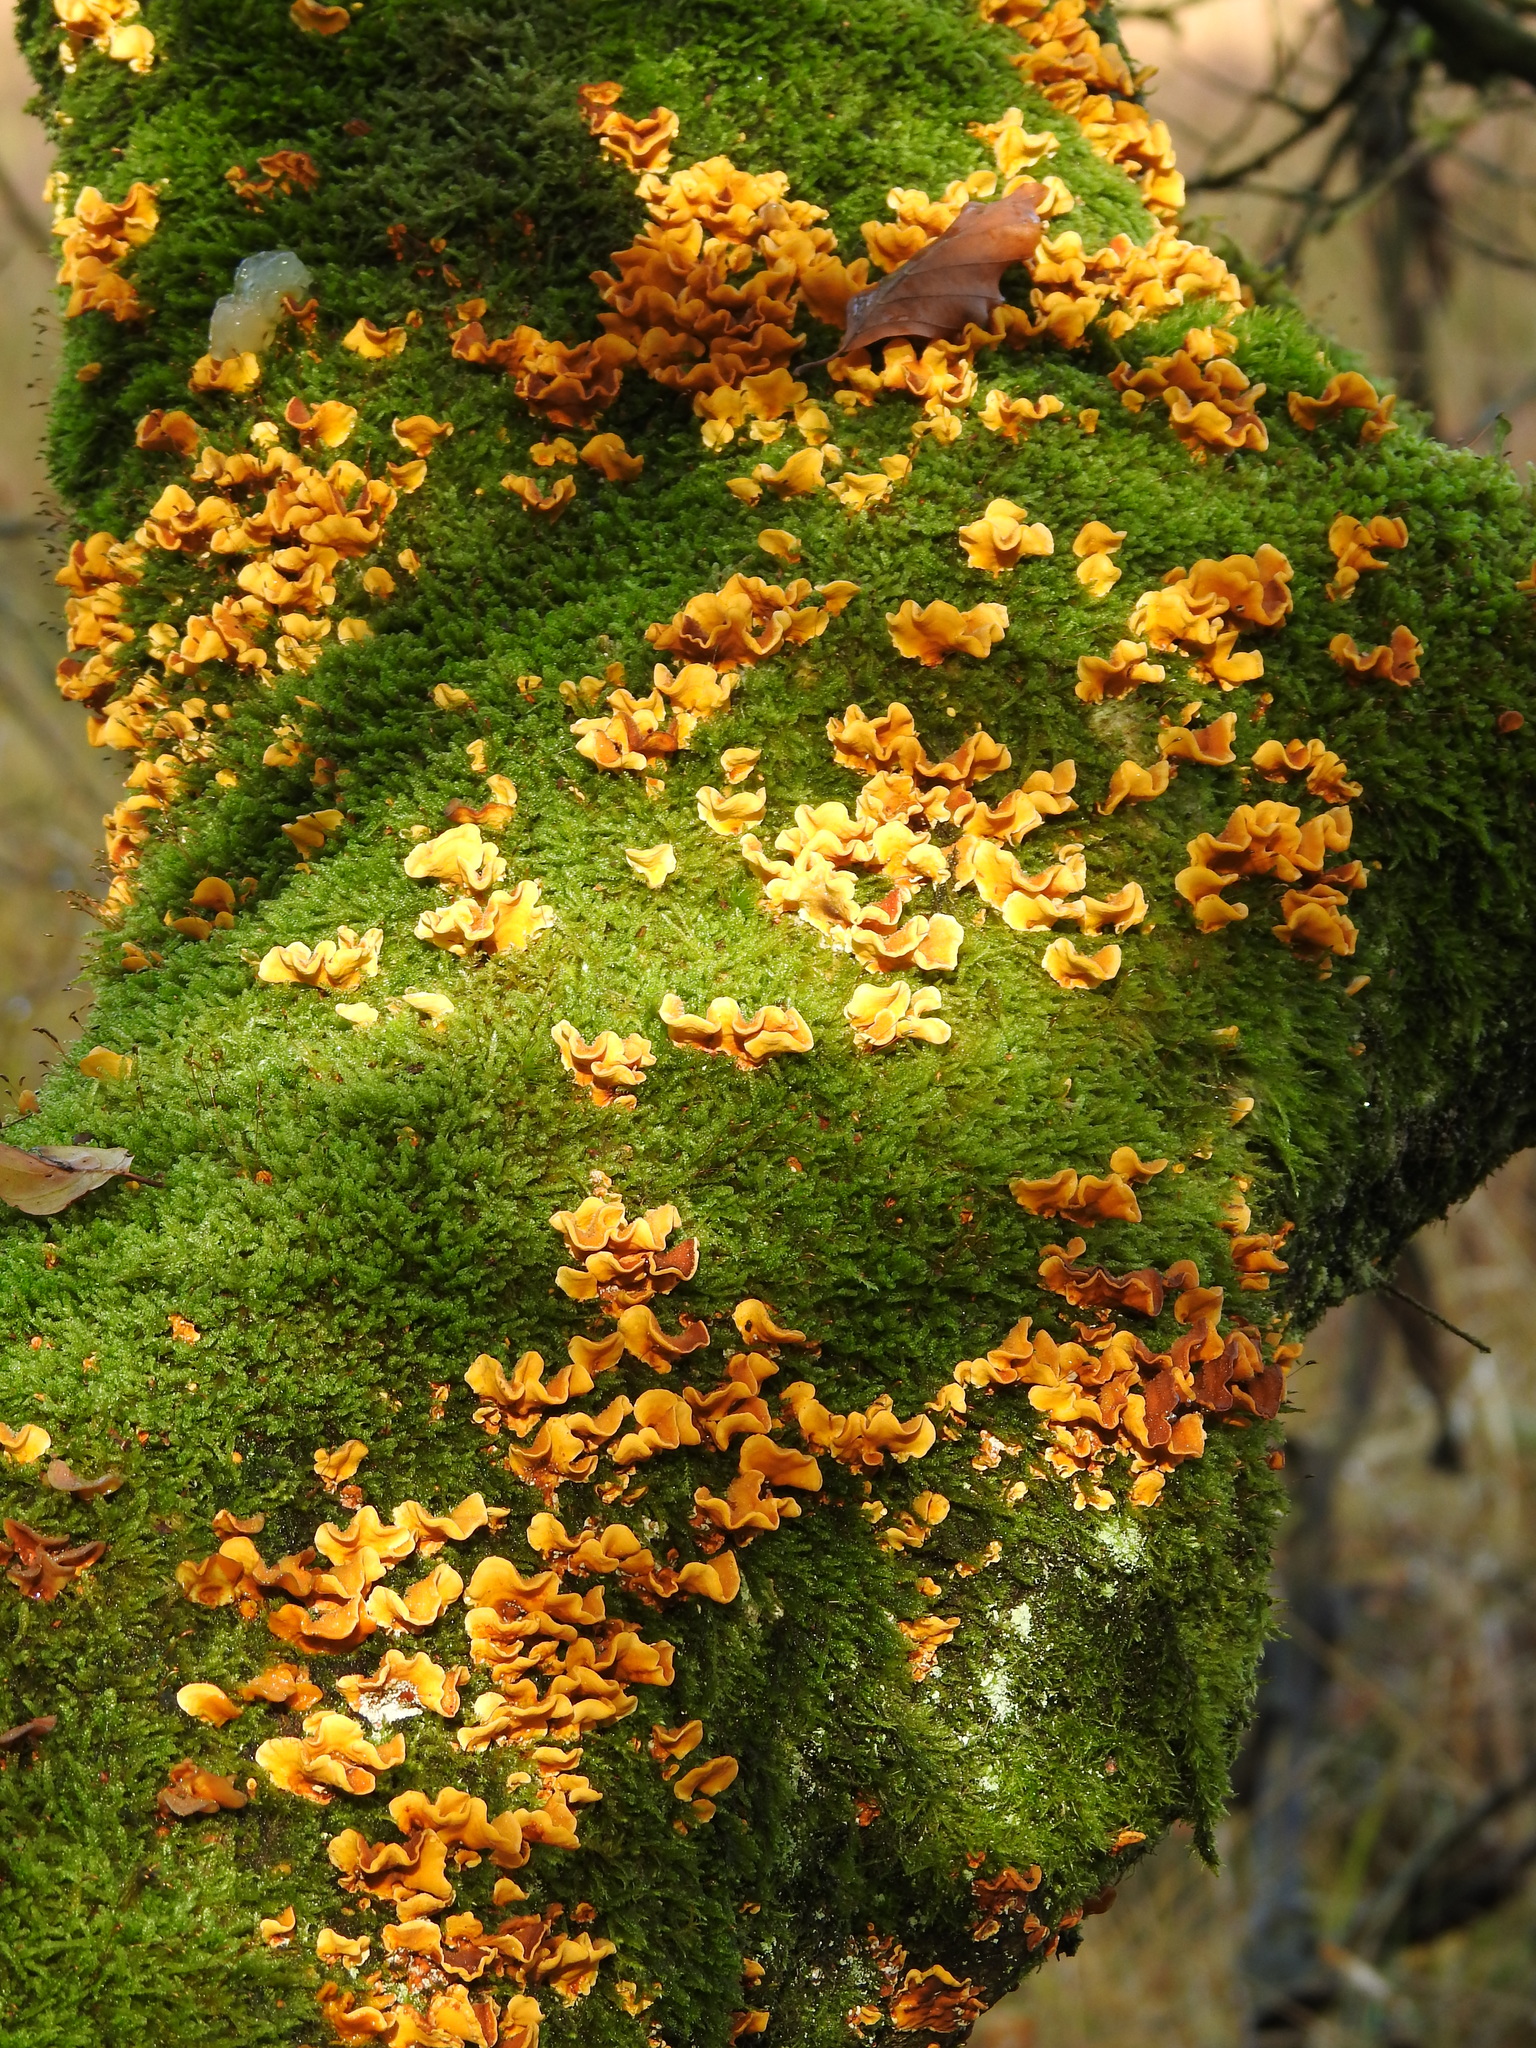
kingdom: Fungi
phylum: Basidiomycota
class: Agaricomycetes
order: Russulales
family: Stereaceae
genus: Stereum
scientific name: Stereum hirsutum
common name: Hairy curtain crust
